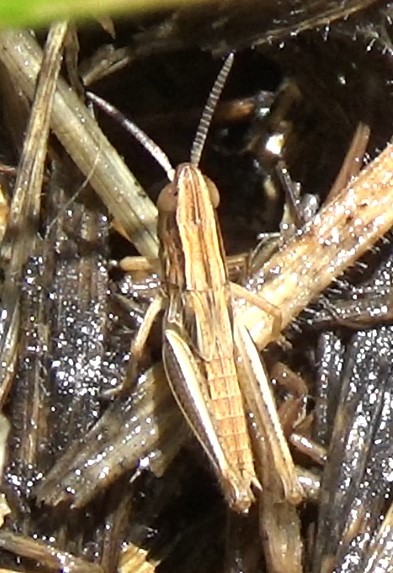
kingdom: Animalia
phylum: Arthropoda
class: Insecta
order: Orthoptera
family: Acrididae
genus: Chorthippus
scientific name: Chorthippus albomarginatus
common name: Lesser marsh grasshopper
